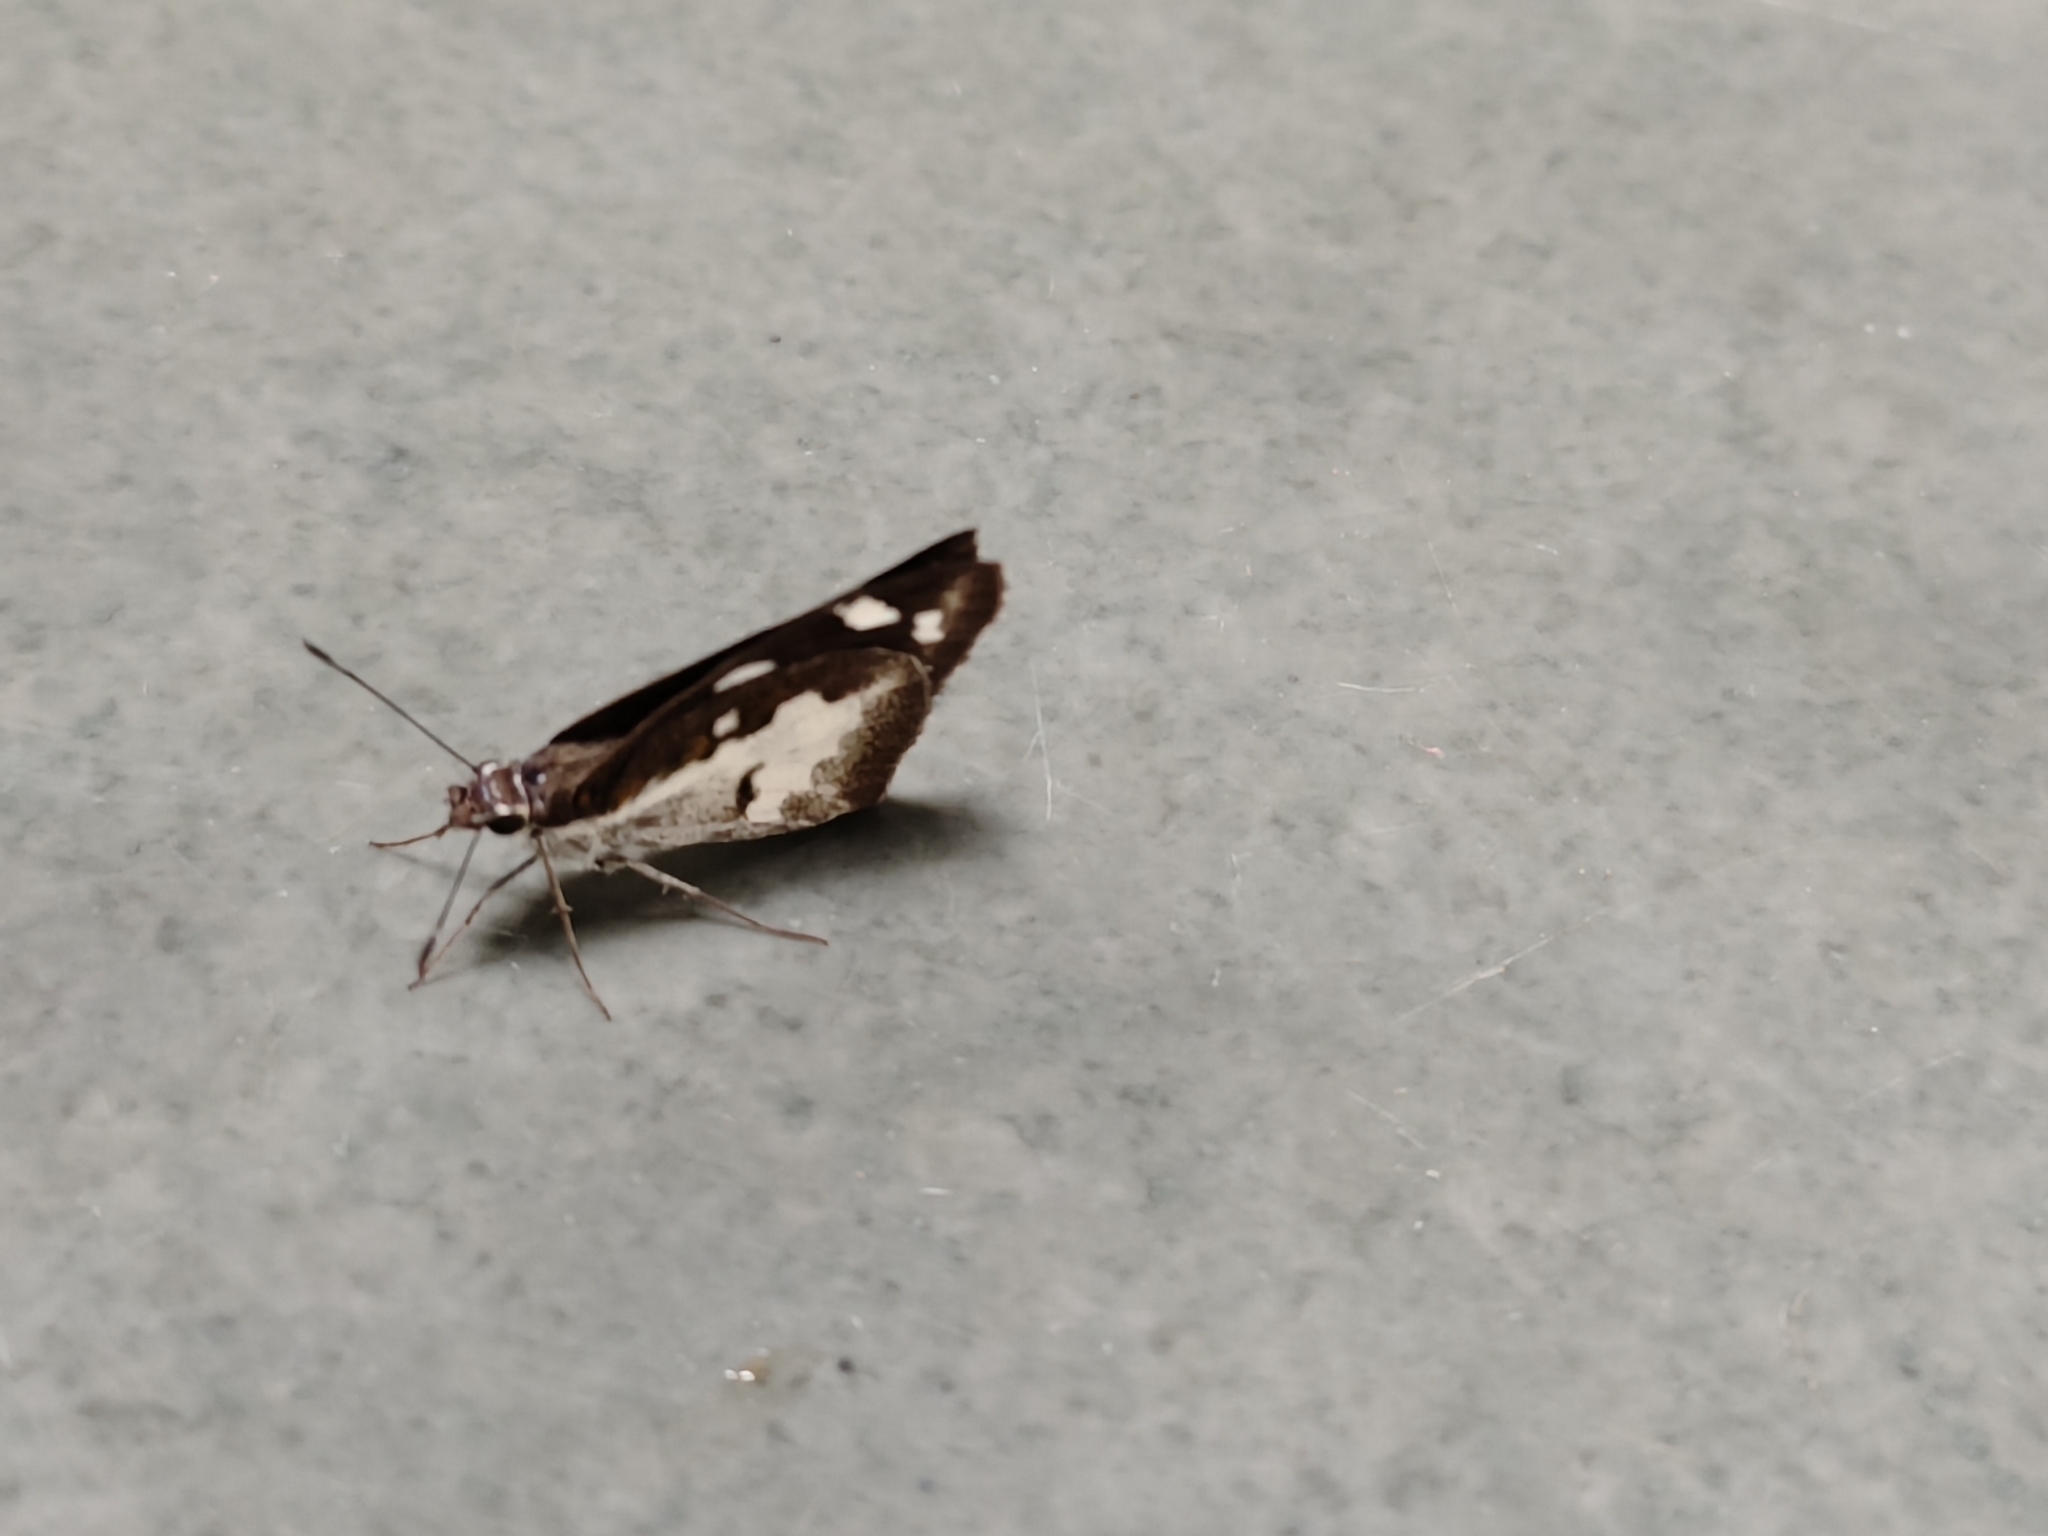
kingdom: Animalia
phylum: Arthropoda
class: Insecta
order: Lepidoptera
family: Hesperiidae
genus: Udaspes
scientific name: Udaspes folus
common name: Grass demon
